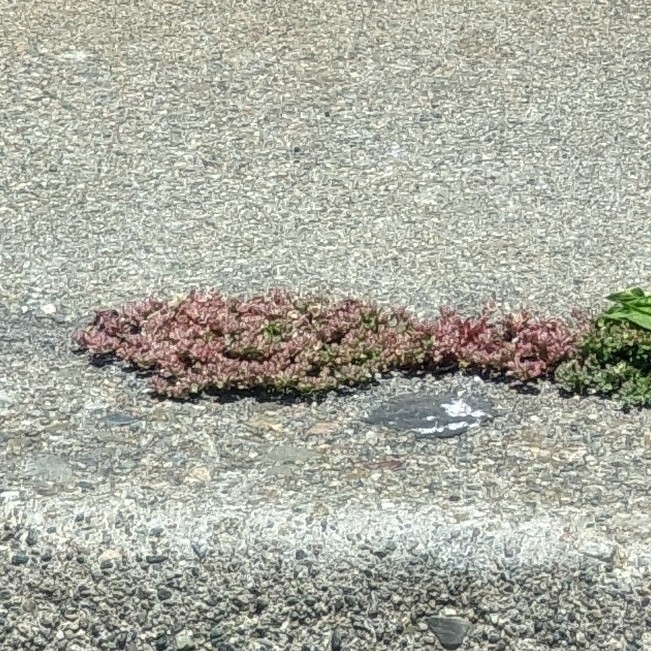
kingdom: Plantae
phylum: Tracheophyta
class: Magnoliopsida
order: Caryophyllales
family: Caryophyllaceae
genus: Polycarpon
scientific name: Polycarpon tetraphyllum
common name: Four-leaved all-seed
